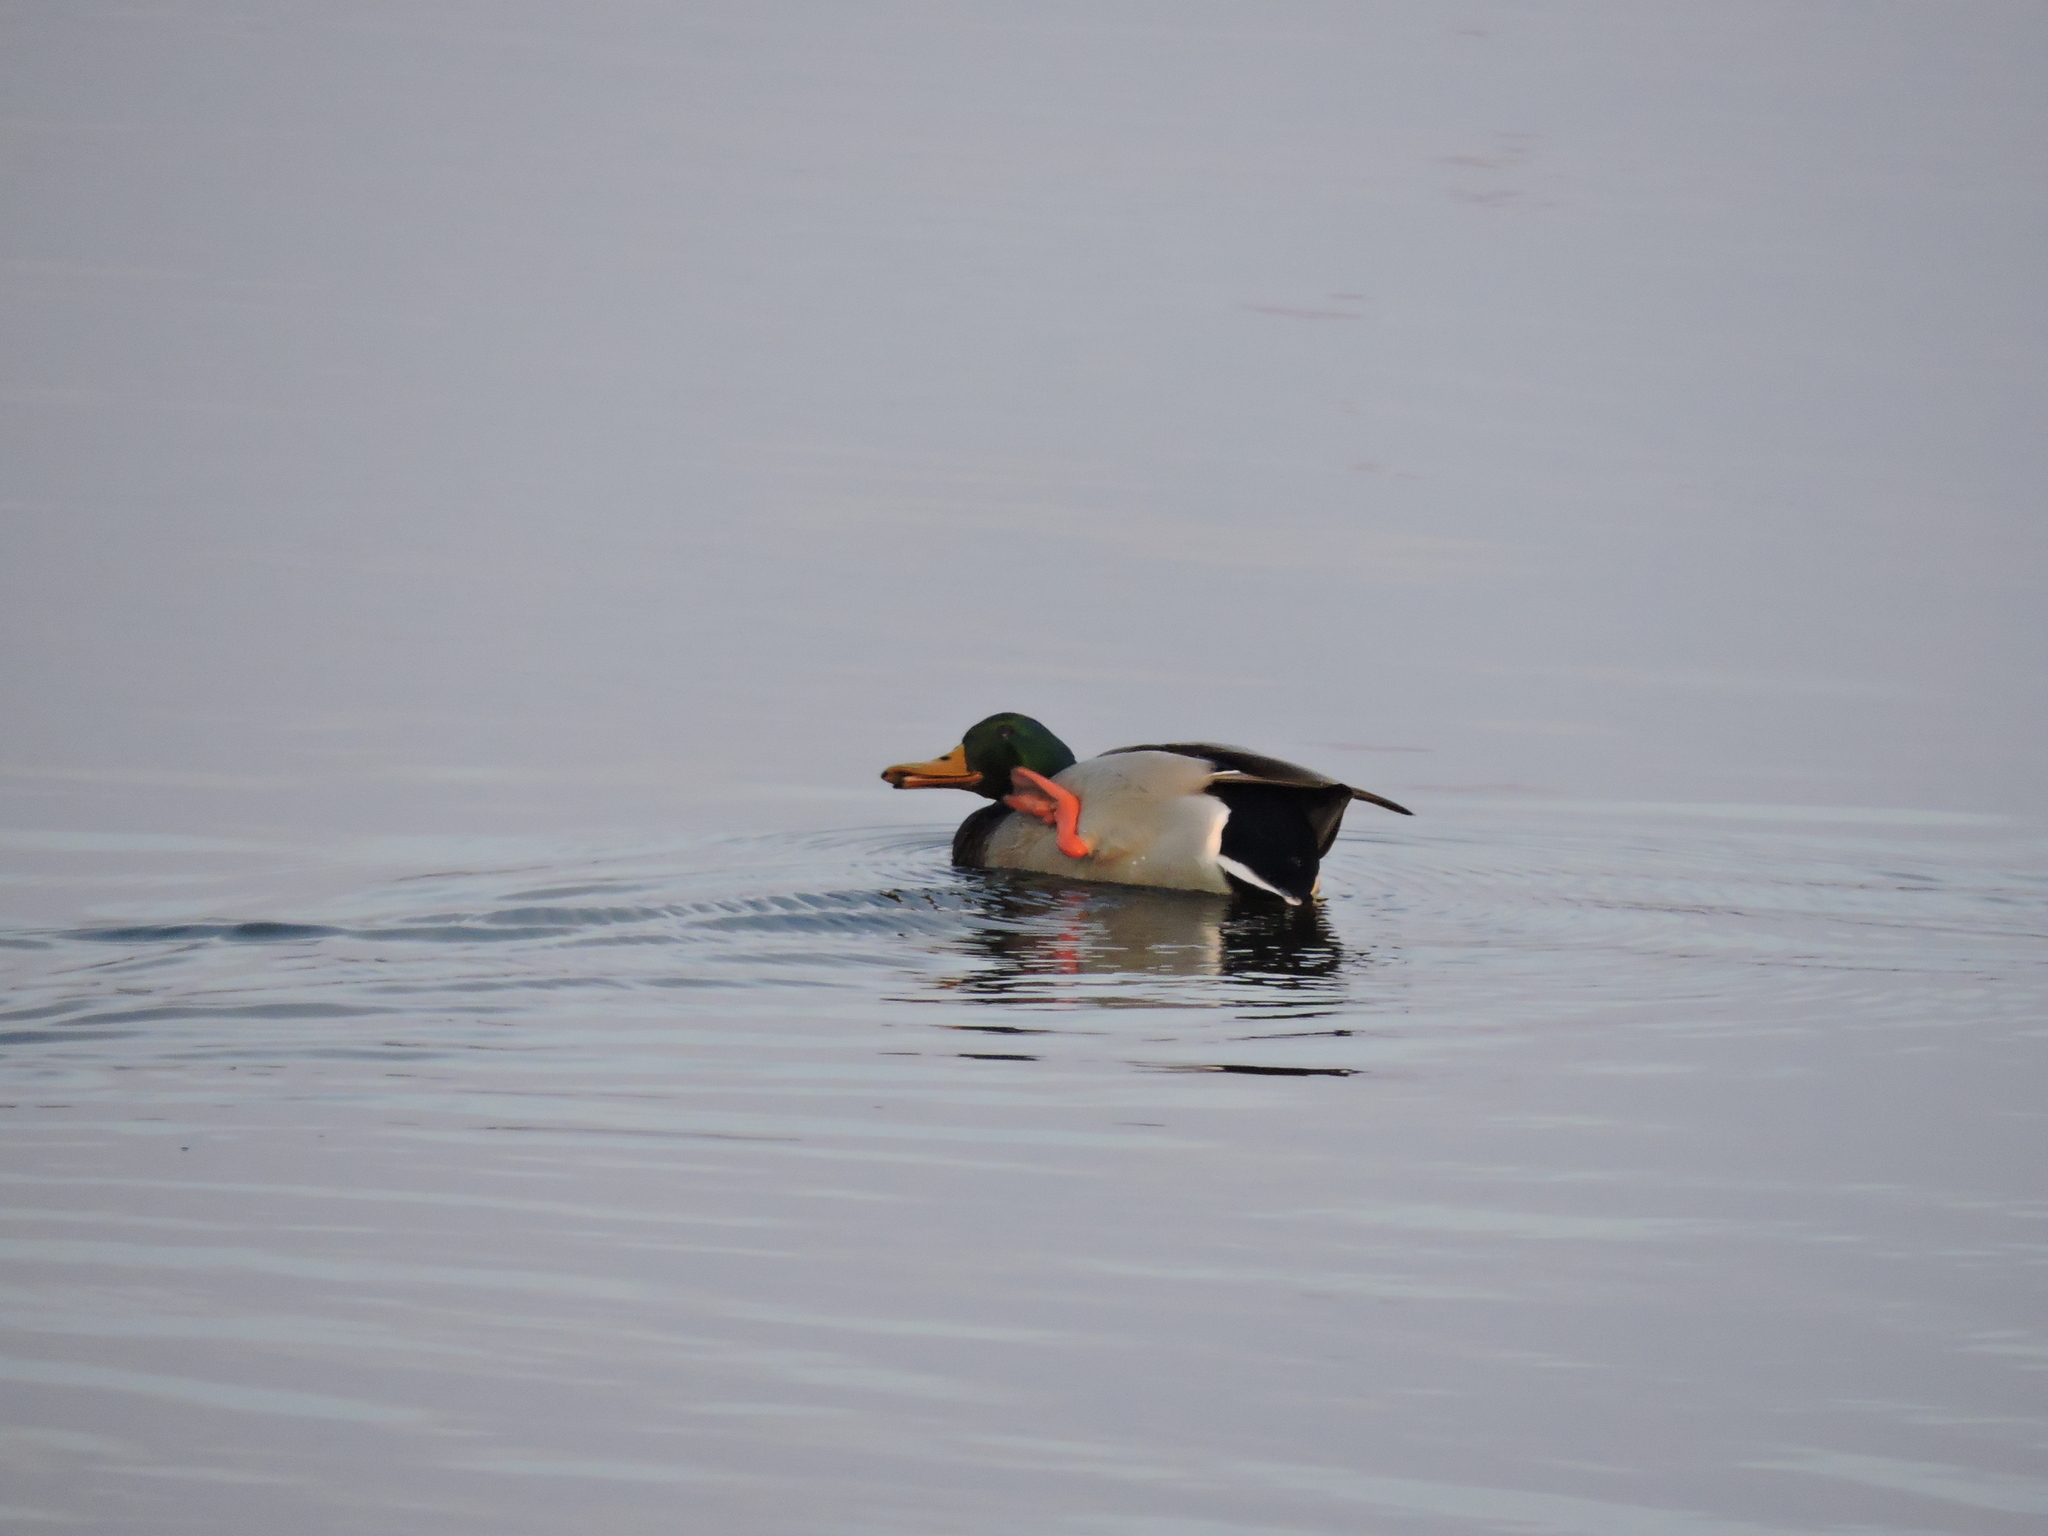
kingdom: Animalia
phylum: Chordata
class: Aves
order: Anseriformes
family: Anatidae
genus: Anas
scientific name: Anas platyrhynchos
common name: Mallard
